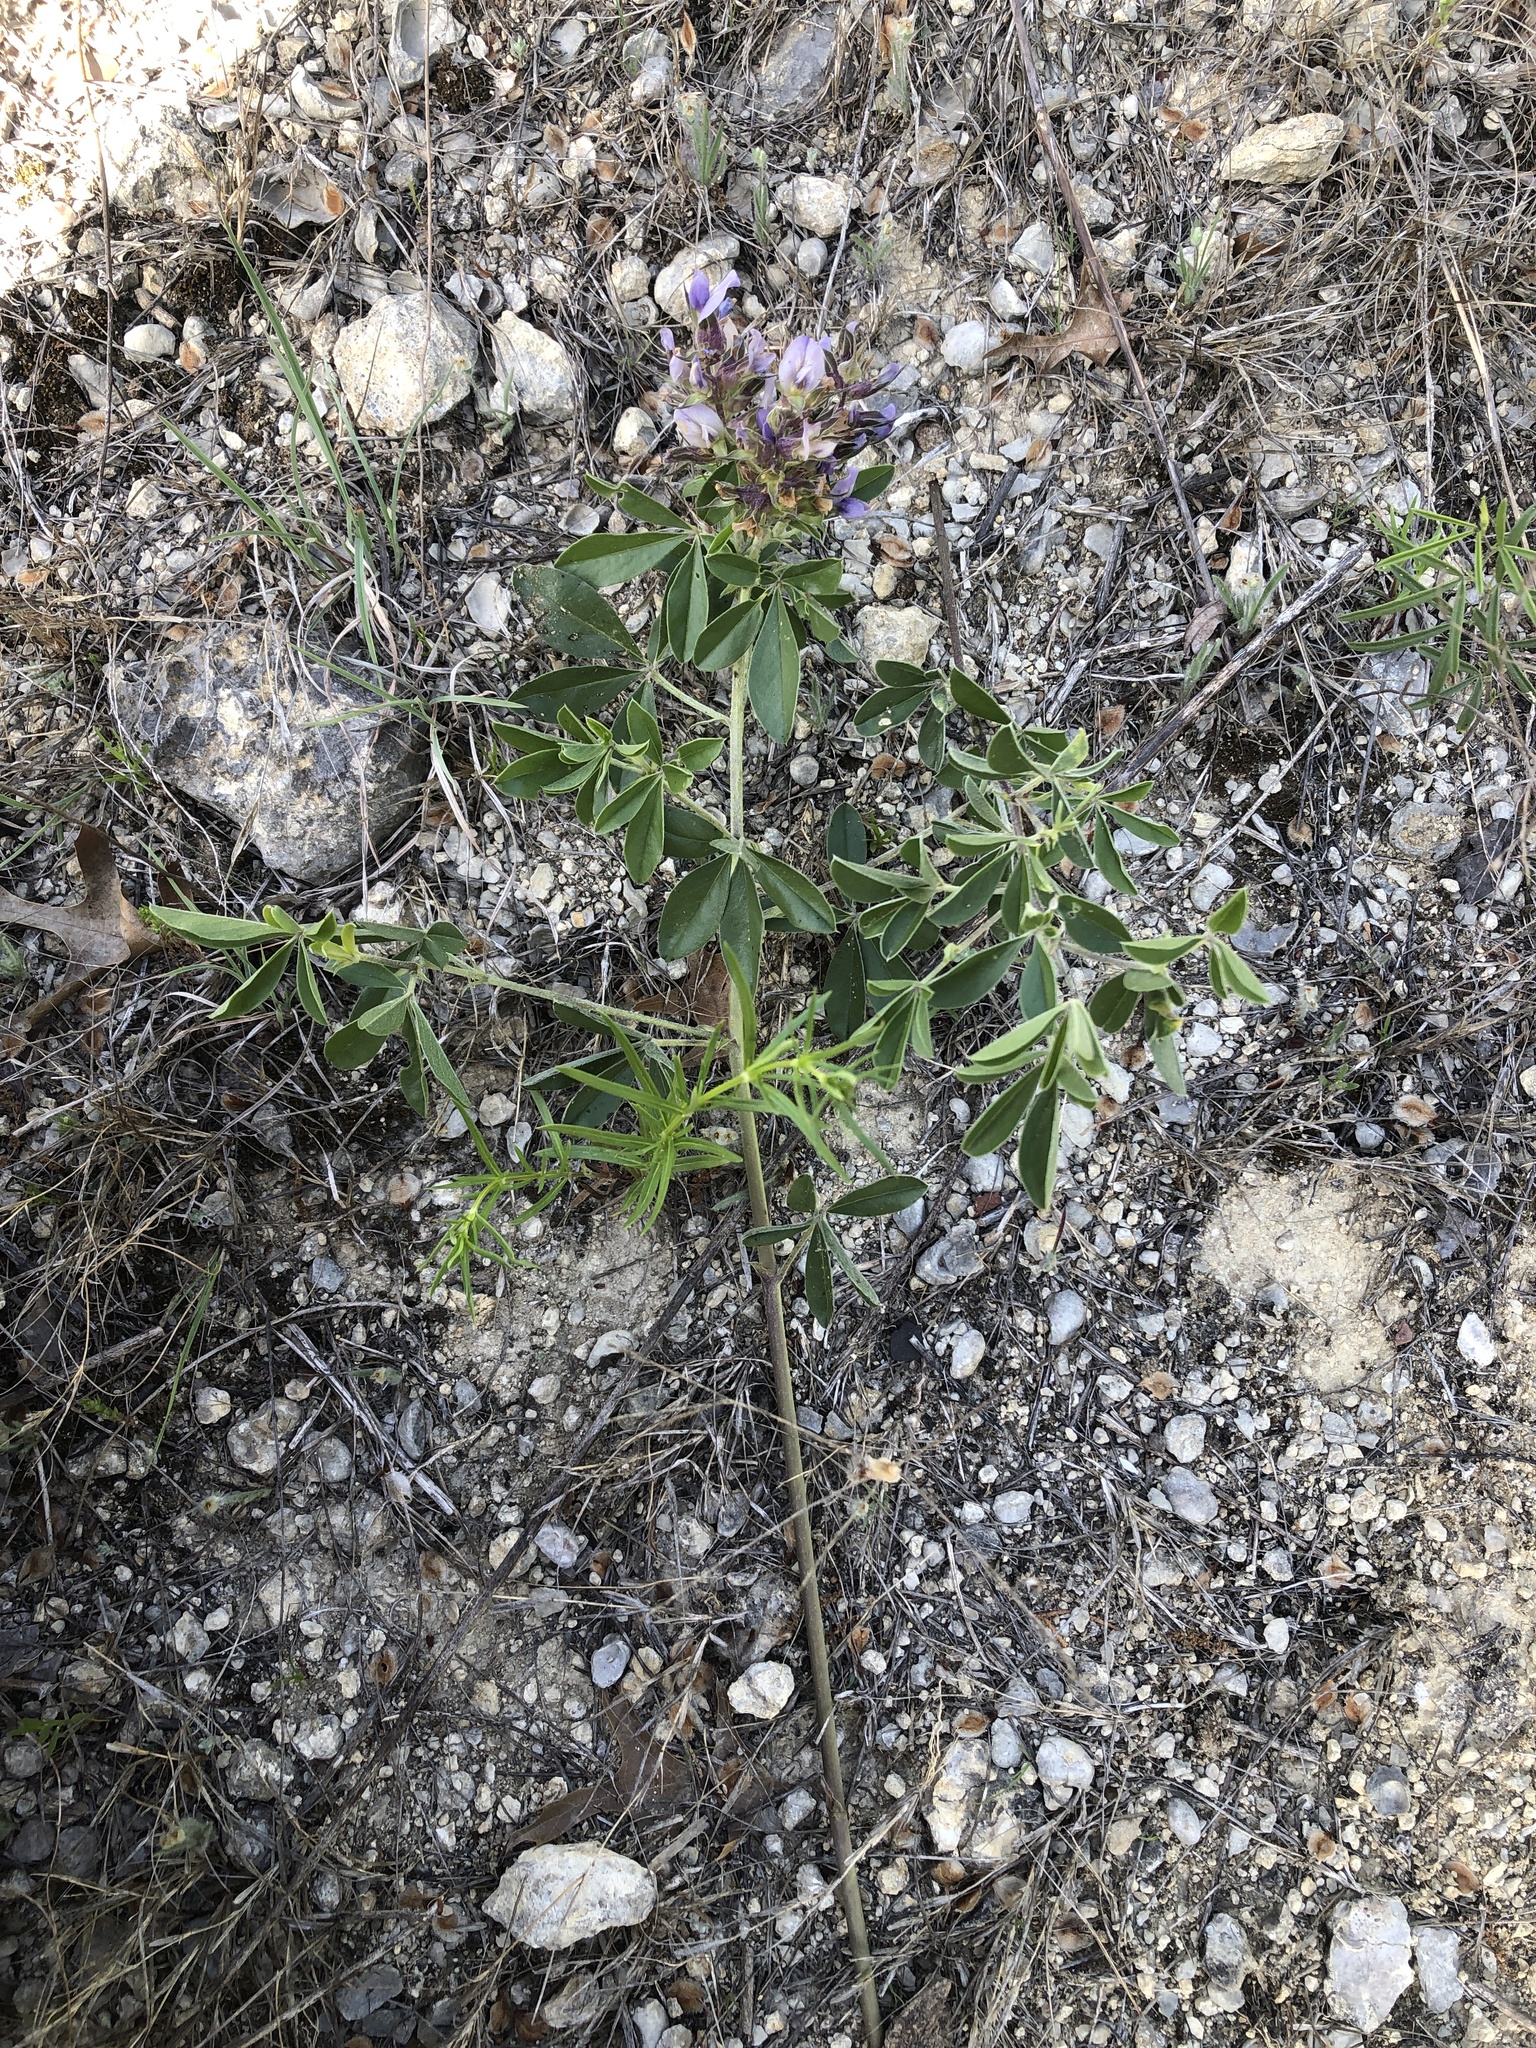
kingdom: Plantae
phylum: Tracheophyta
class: Magnoliopsida
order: Fabales
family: Fabaceae
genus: Pediomelum
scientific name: Pediomelum cuspidatum
